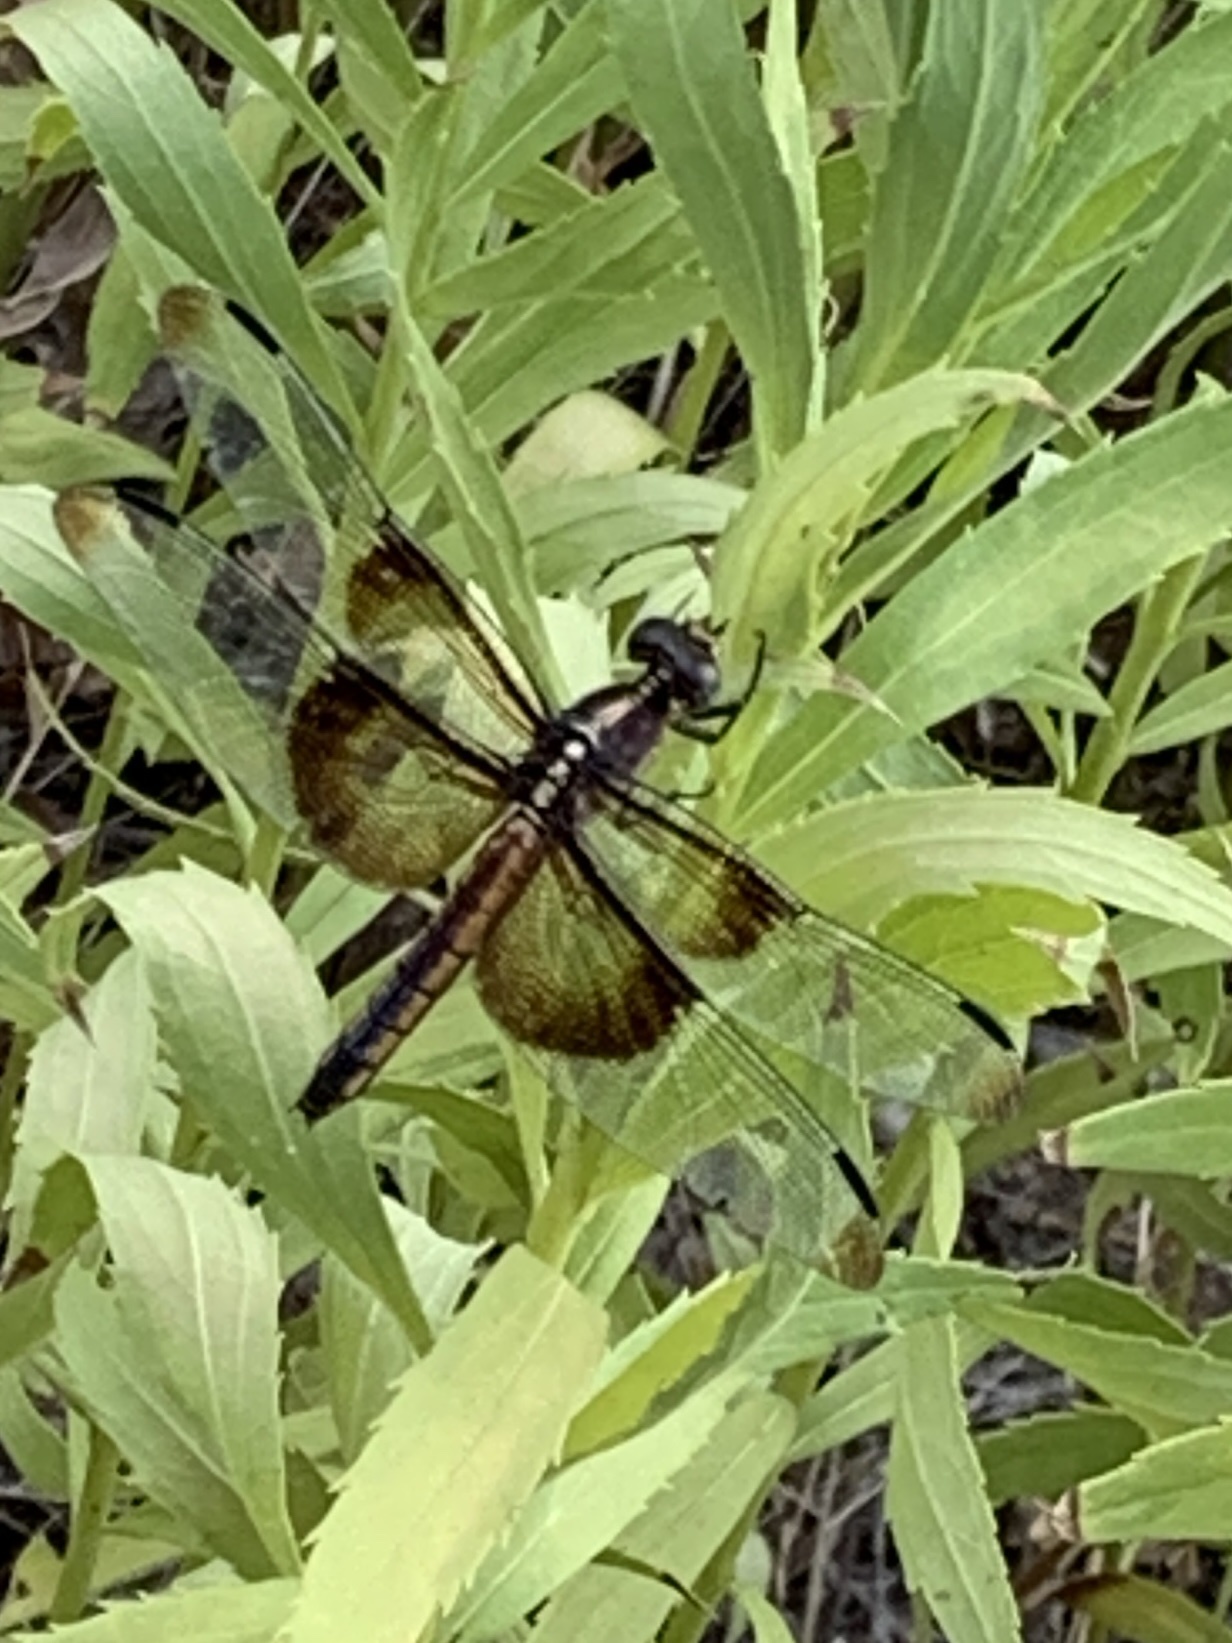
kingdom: Animalia
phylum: Arthropoda
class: Insecta
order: Odonata
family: Libellulidae
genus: Libellula
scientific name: Libellula luctuosa
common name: Widow skimmer
